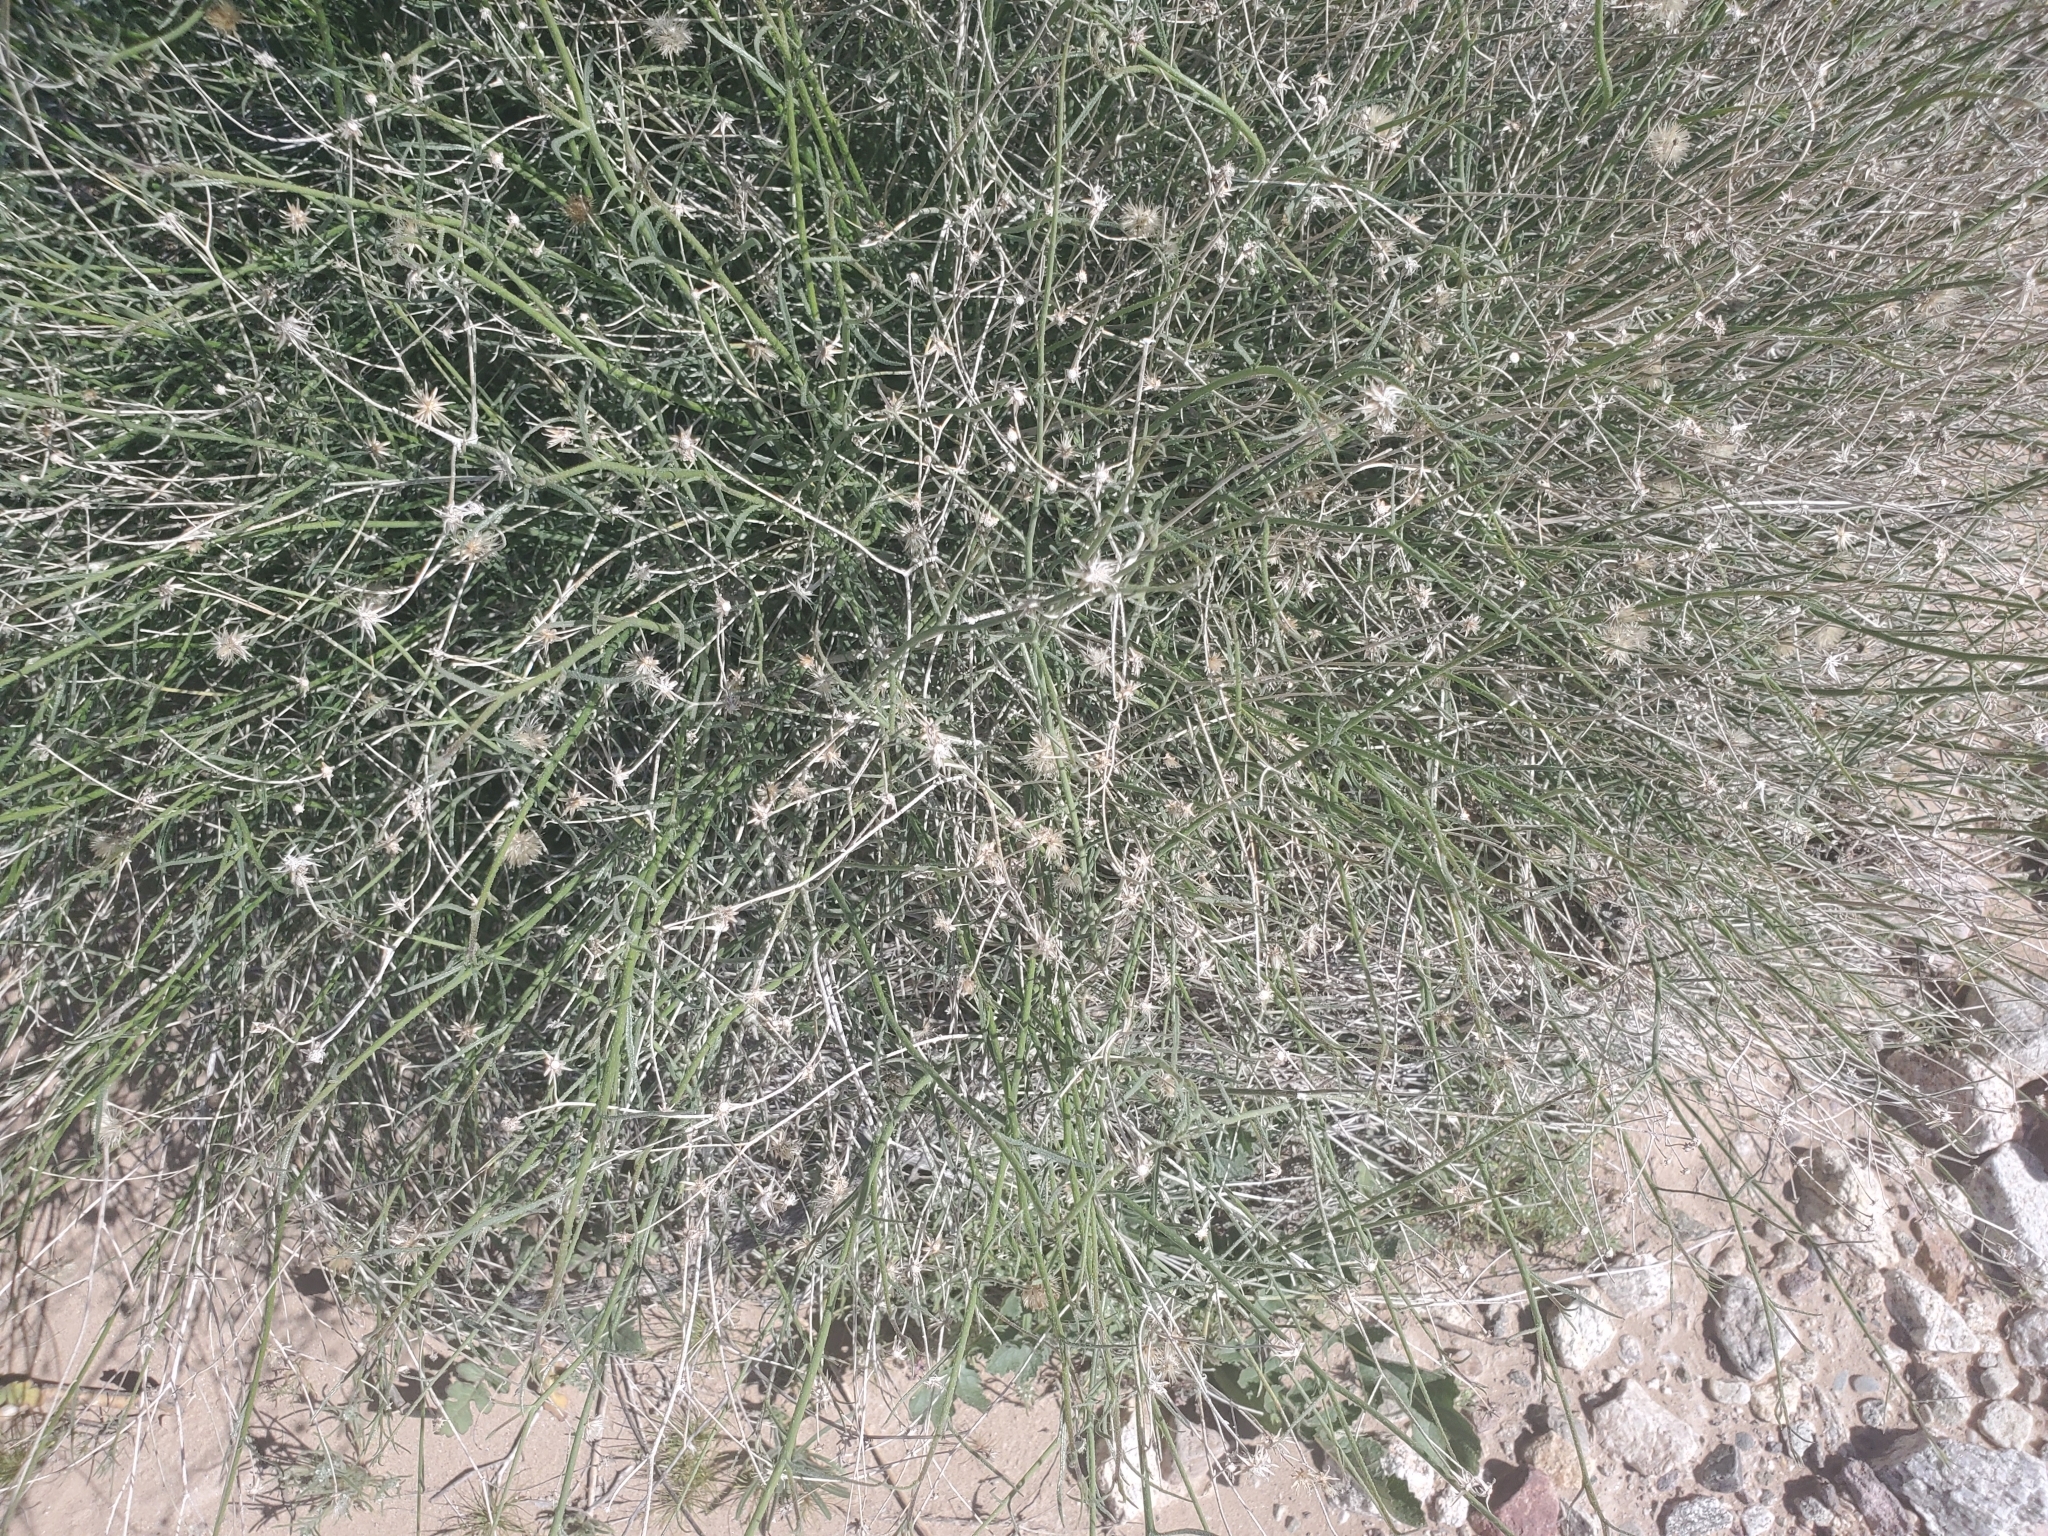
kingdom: Plantae
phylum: Tracheophyta
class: Magnoliopsida
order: Asterales
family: Asteraceae
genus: Bebbia
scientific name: Bebbia juncea
